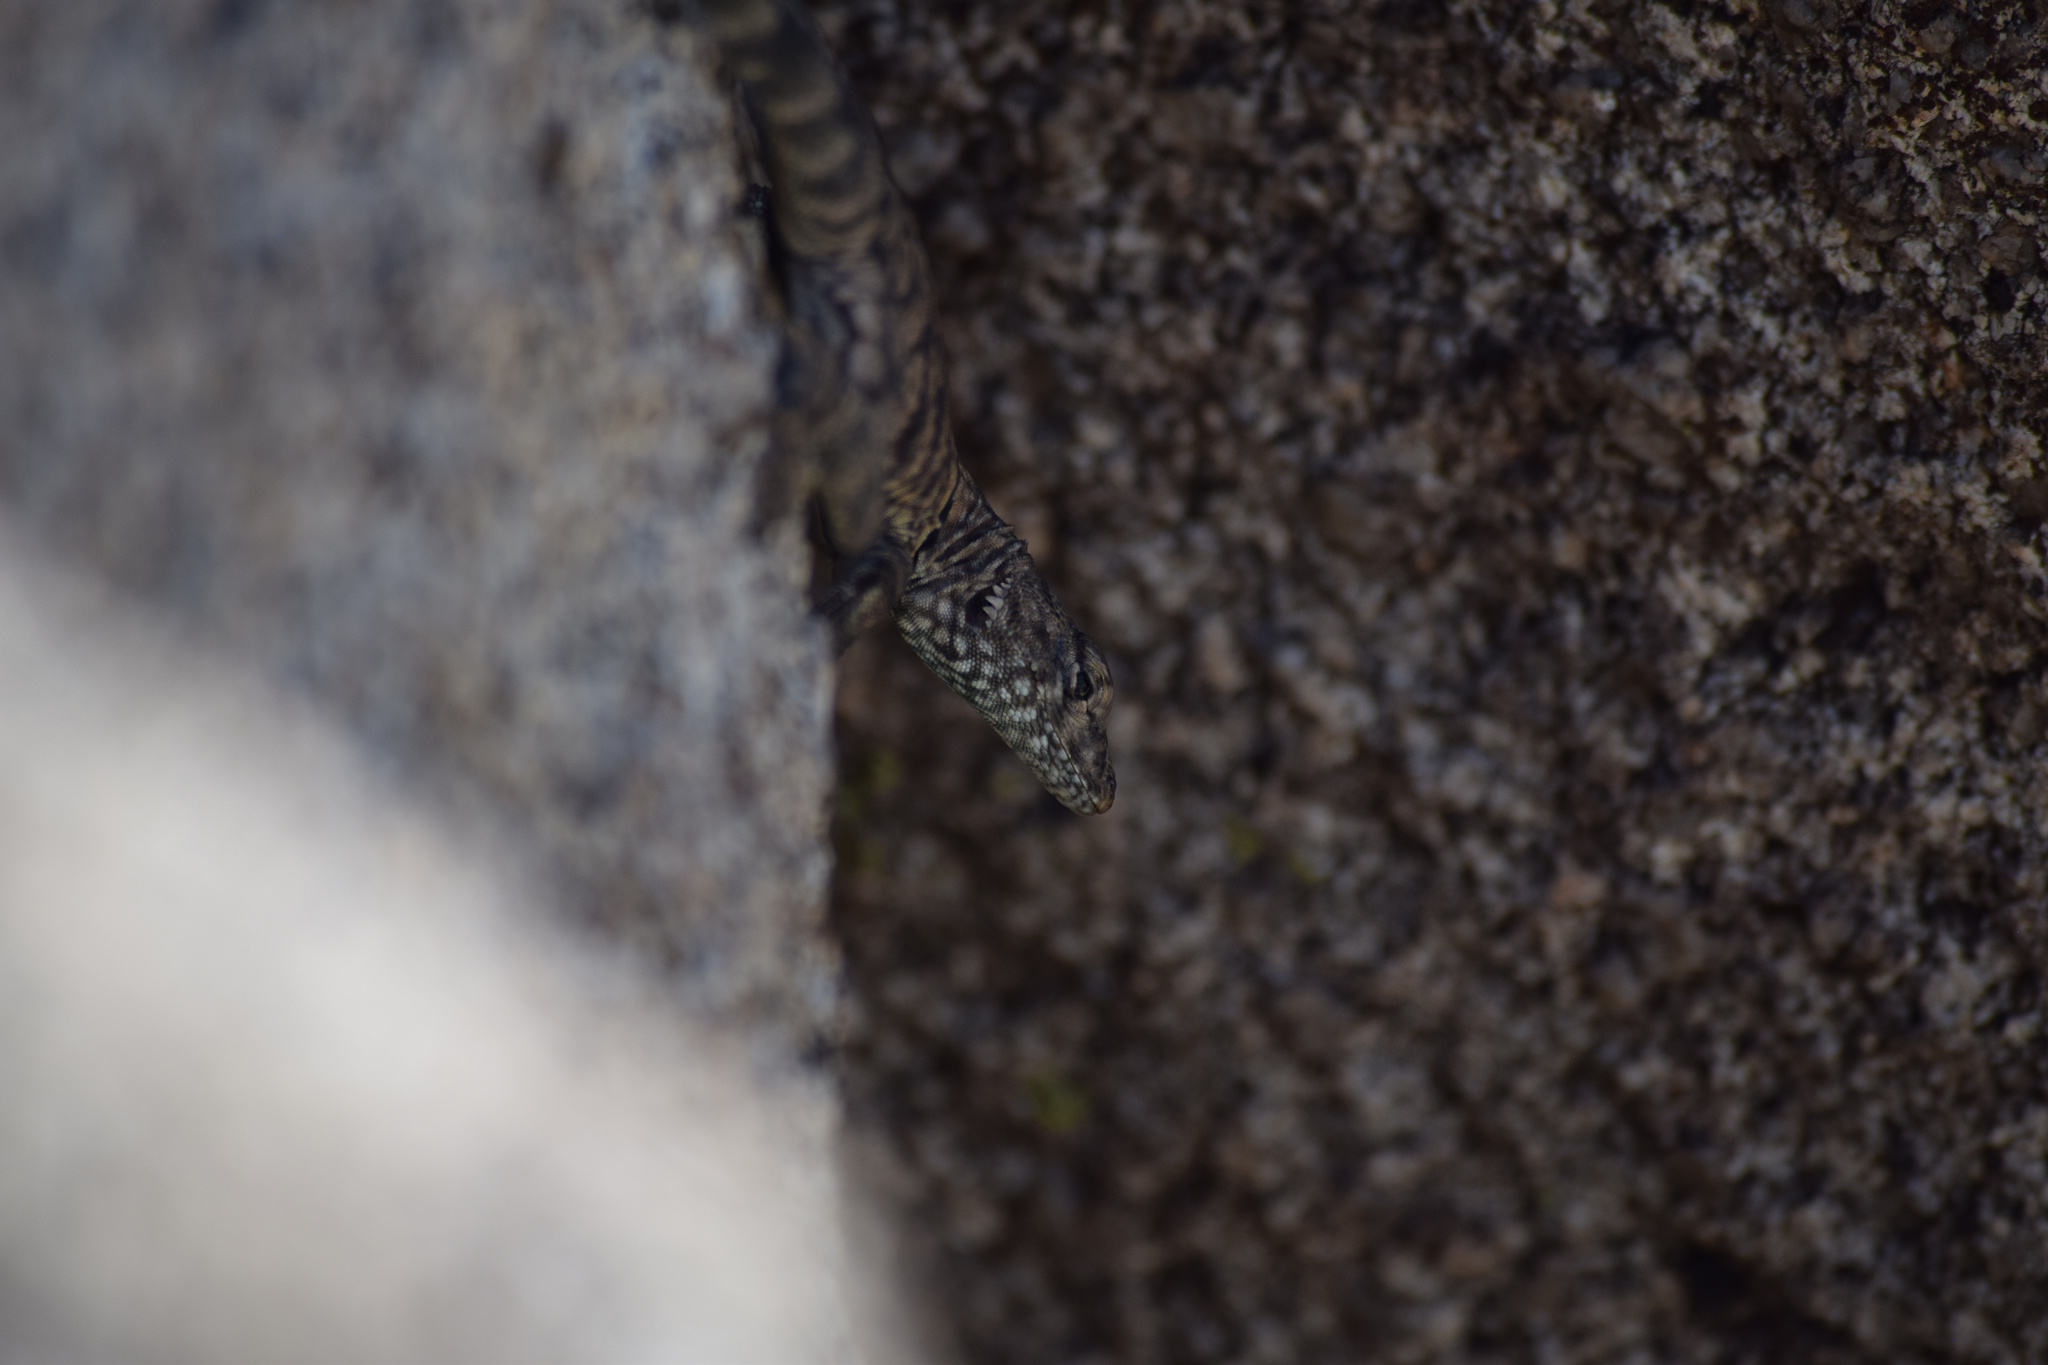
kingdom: Animalia
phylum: Chordata
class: Squamata
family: Phrynosomatidae
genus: Petrosaurus
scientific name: Petrosaurus mearnsi
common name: Banded rock lizard
